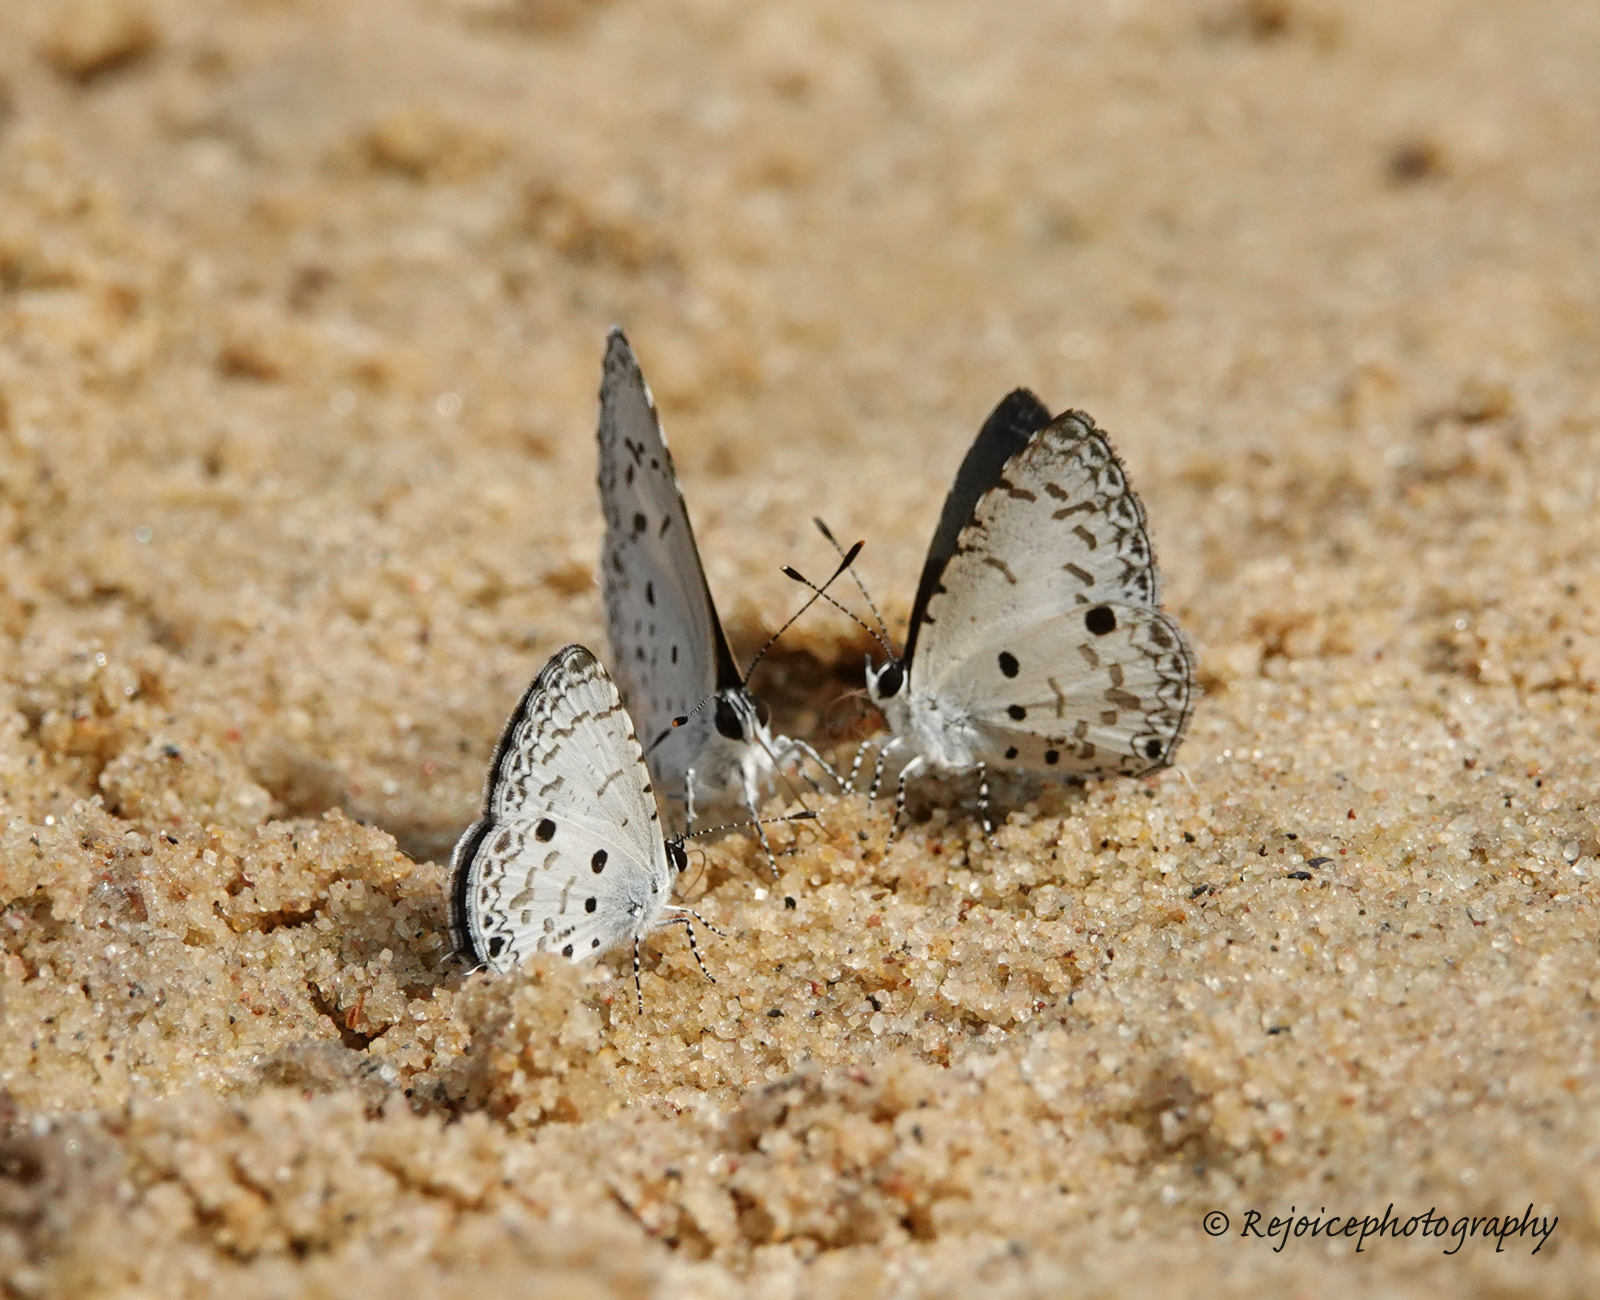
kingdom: Animalia
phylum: Arthropoda
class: Insecta
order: Lepidoptera
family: Lycaenidae
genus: Megisba
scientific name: Megisba malaya
